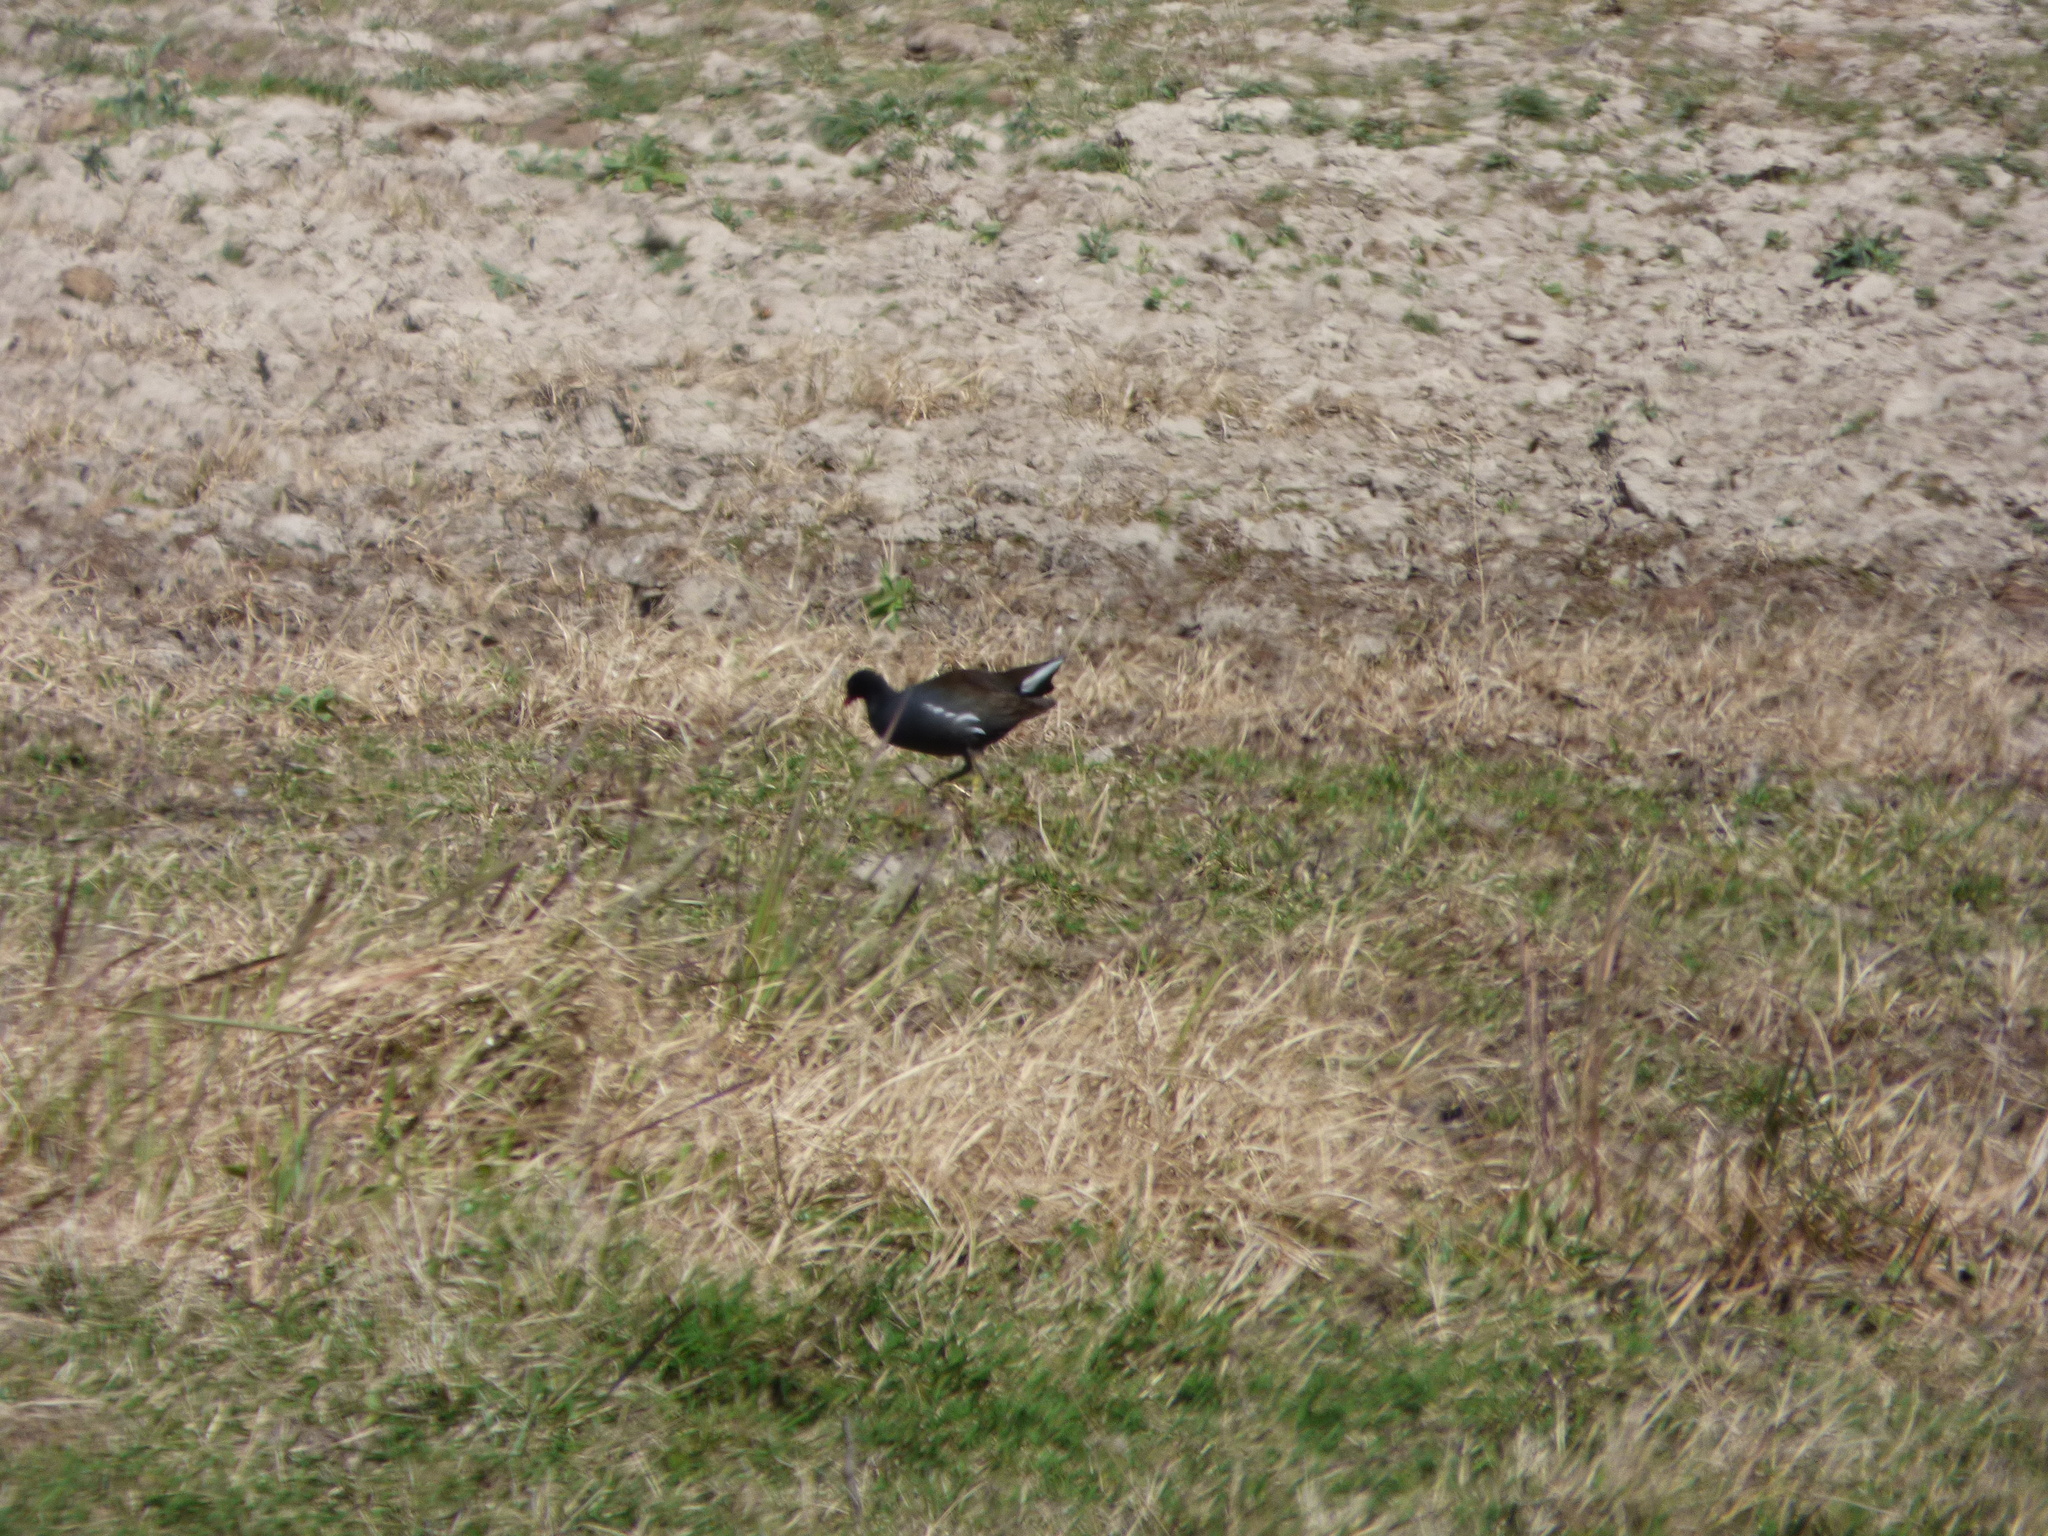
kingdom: Animalia
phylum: Chordata
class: Aves
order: Gruiformes
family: Rallidae
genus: Gallinula
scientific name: Gallinula chloropus
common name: Common moorhen
